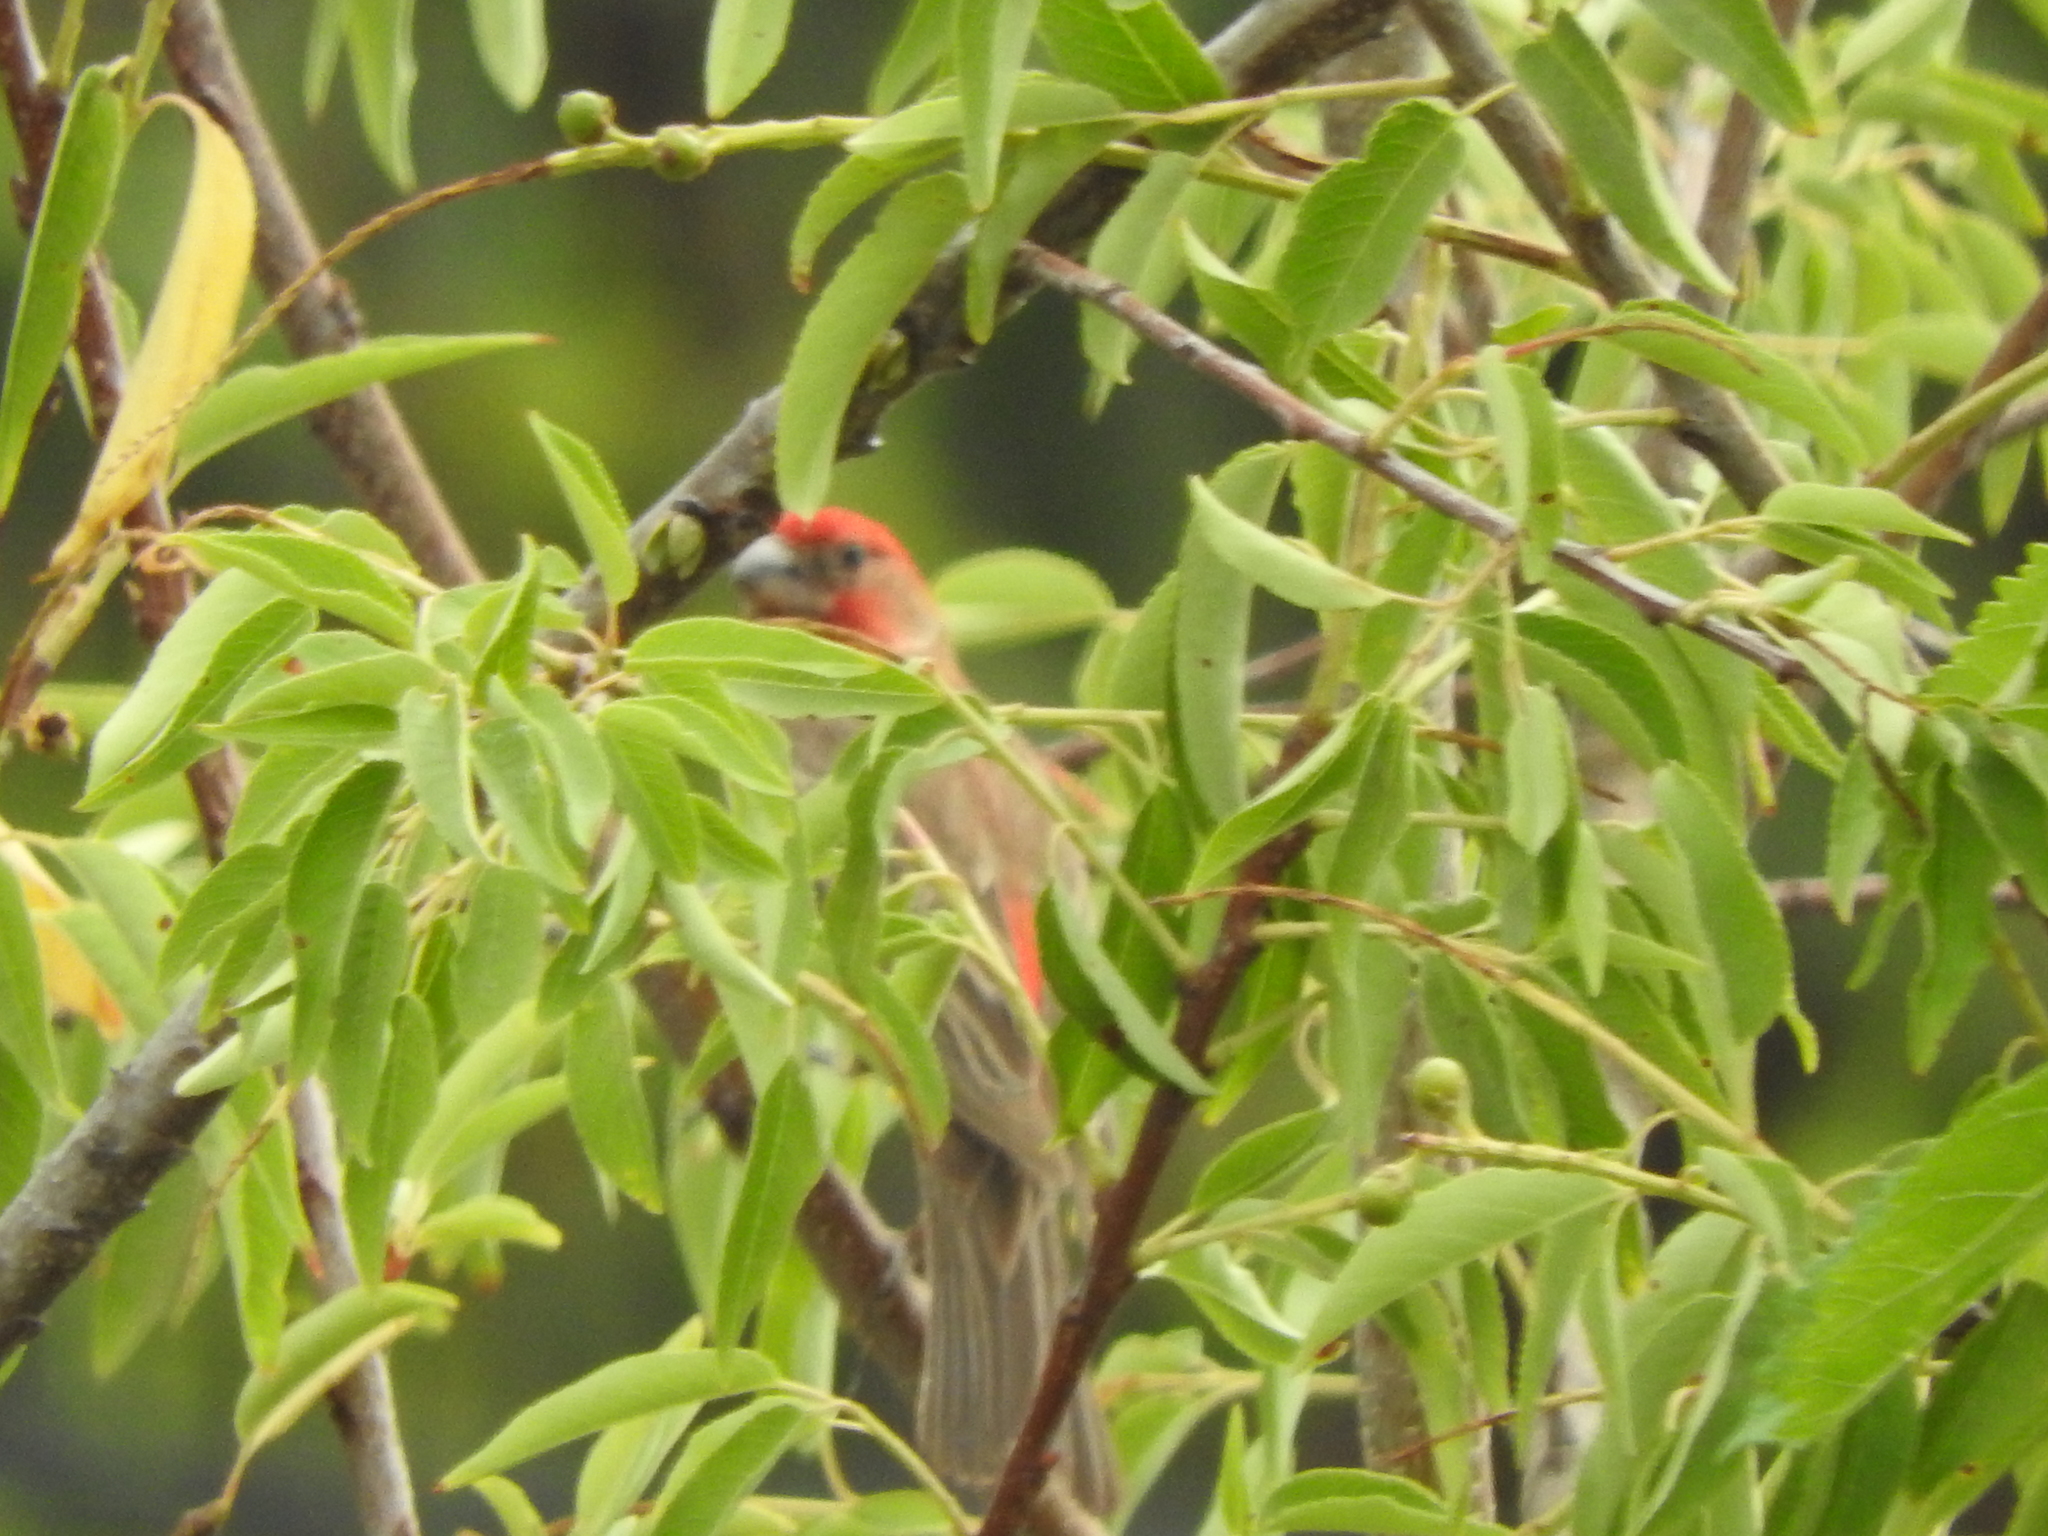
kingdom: Animalia
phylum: Chordata
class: Aves
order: Passeriformes
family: Fringillidae
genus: Haemorhous
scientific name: Haemorhous mexicanus
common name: House finch
